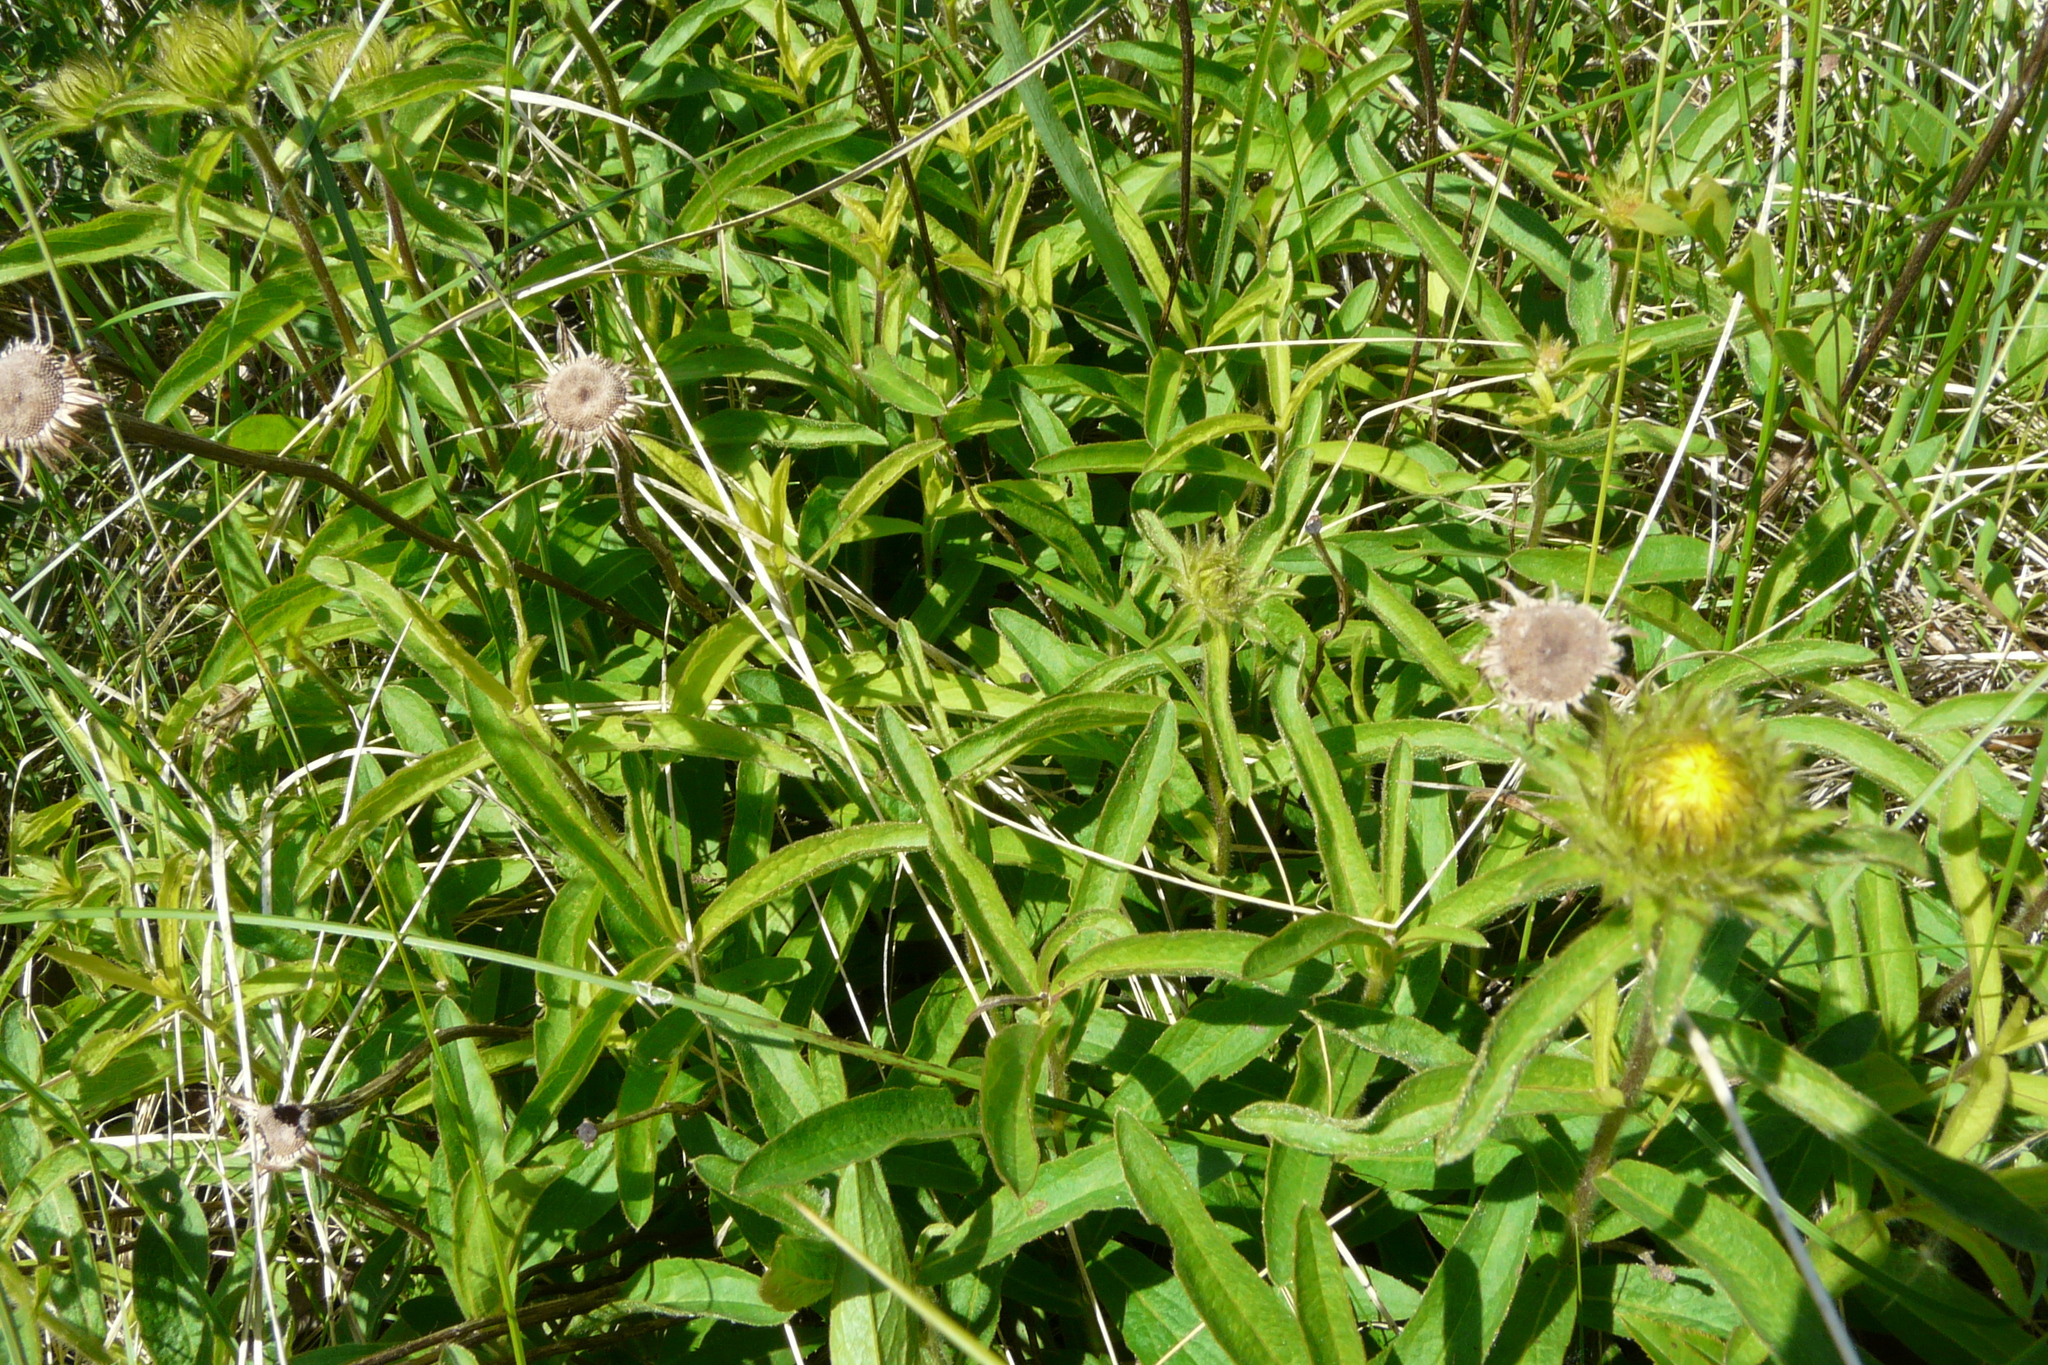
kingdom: Plantae
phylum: Tracheophyta
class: Magnoliopsida
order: Asterales
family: Asteraceae
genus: Pentanema
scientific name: Pentanema hirtum
